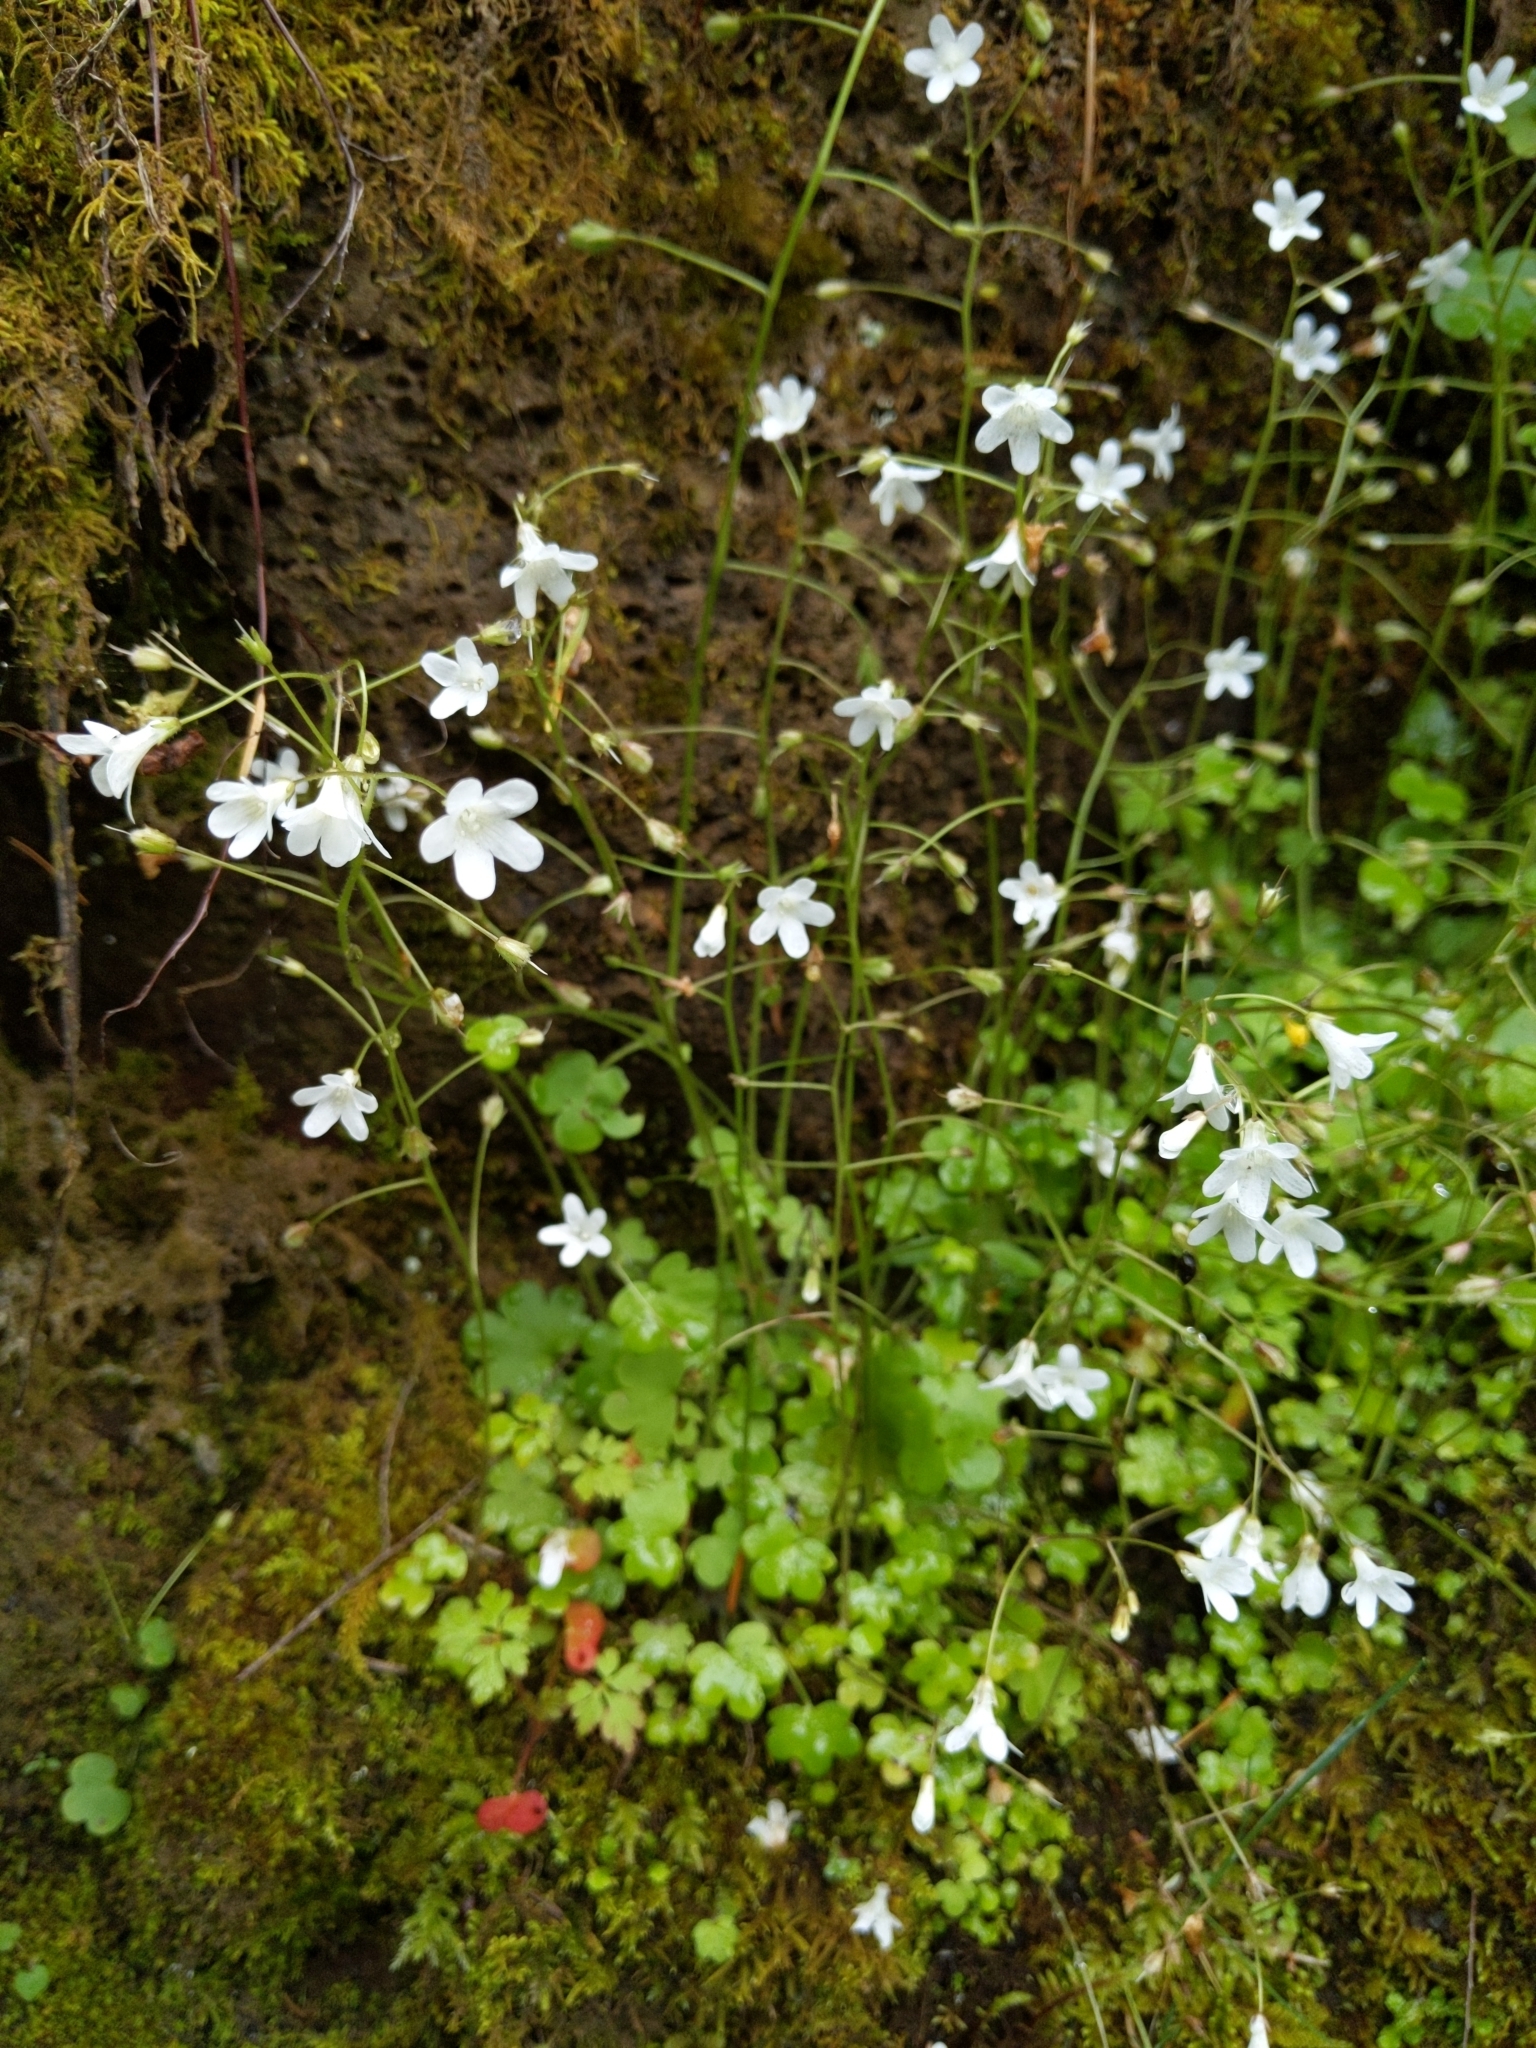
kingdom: Plantae
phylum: Tracheophyta
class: Magnoliopsida
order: Boraginales
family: Hydrophyllaceae
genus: Romanzoffia
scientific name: Romanzoffia sitchensis
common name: Sitka mistmaid
